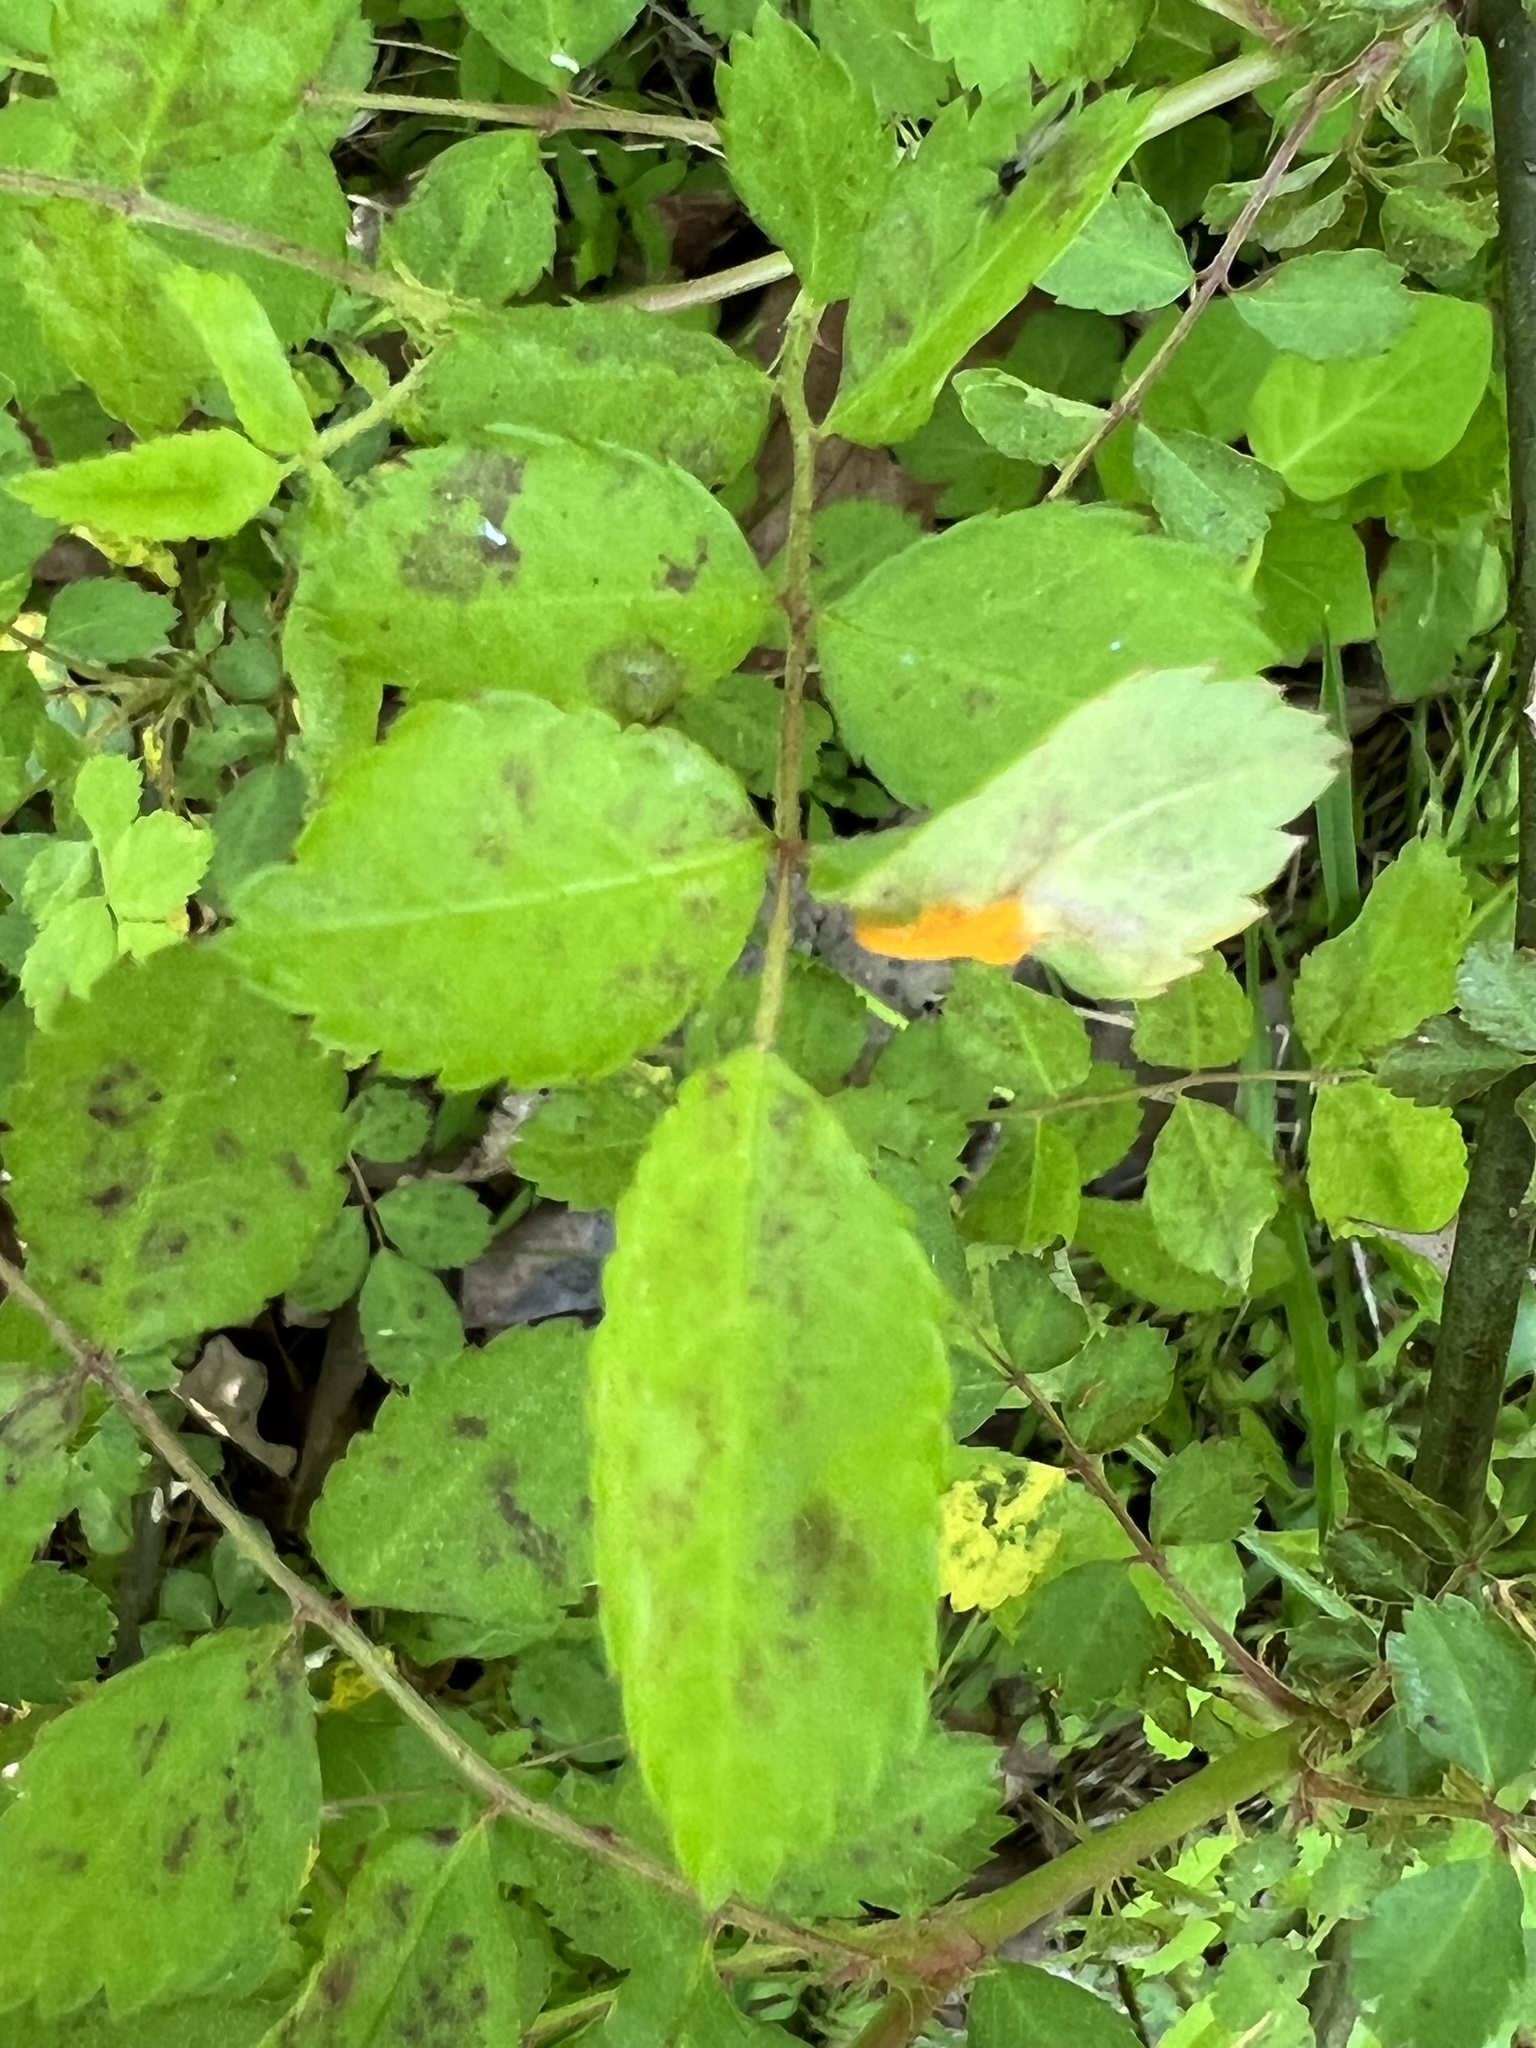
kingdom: Fungi
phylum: Basidiomycota
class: Pucciniomycetes
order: Pucciniales
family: Phragmidiaceae
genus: Phragmidium
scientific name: Phragmidium rosae-multiflorae
